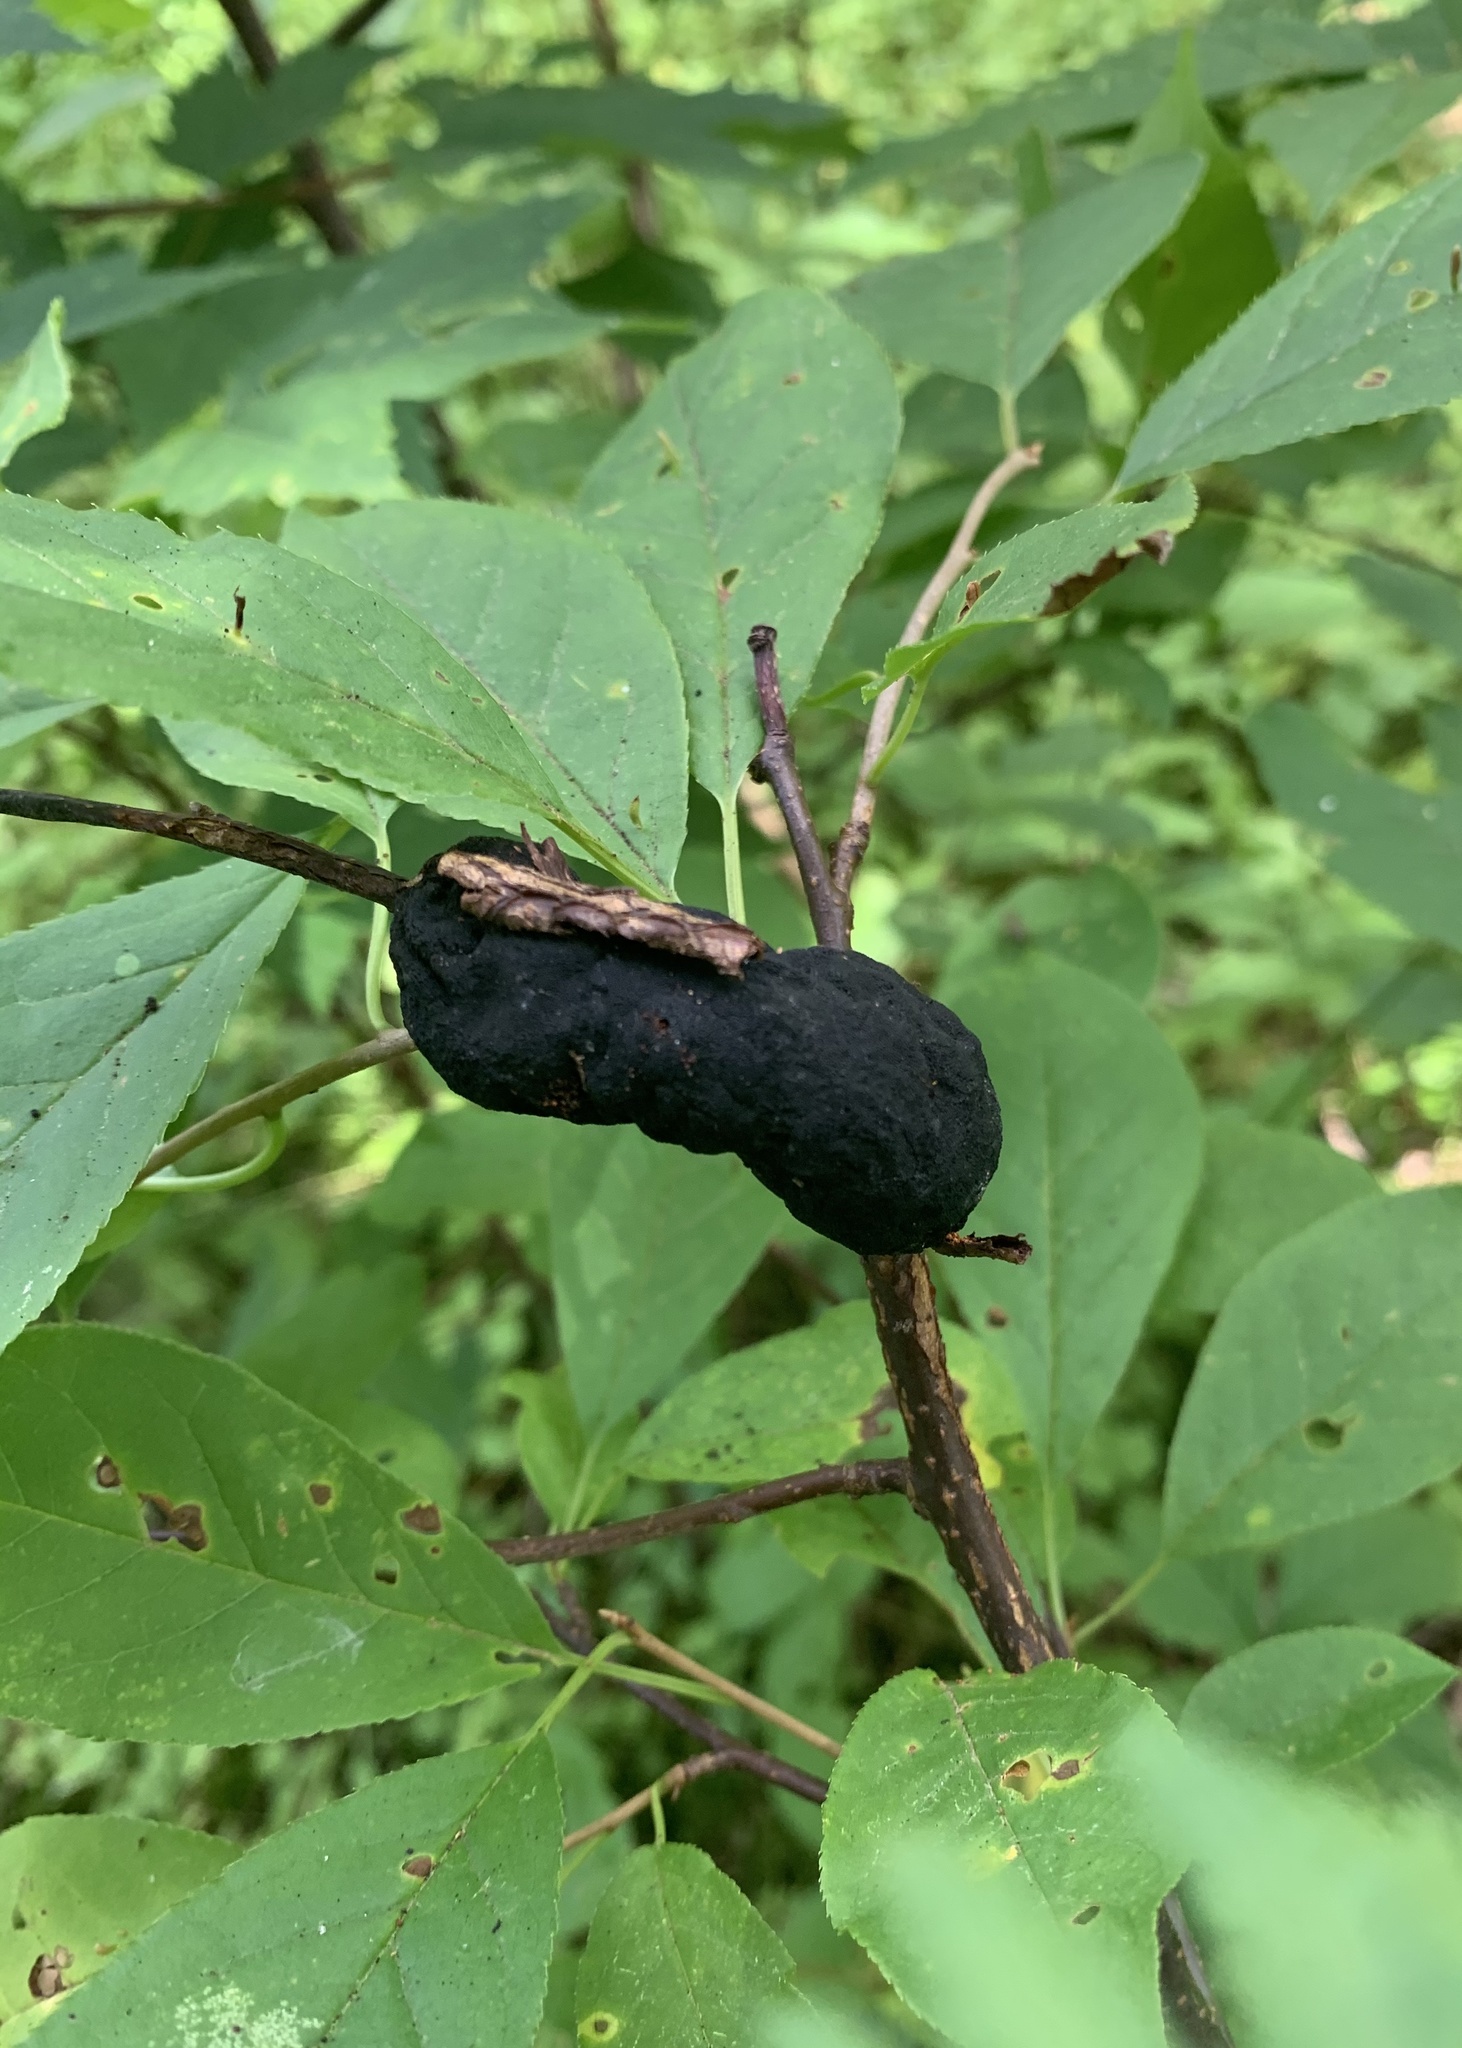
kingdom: Fungi
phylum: Ascomycota
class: Dothideomycetes
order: Venturiales
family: Venturiaceae
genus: Apiosporina
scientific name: Apiosporina morbosa
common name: Black knot
